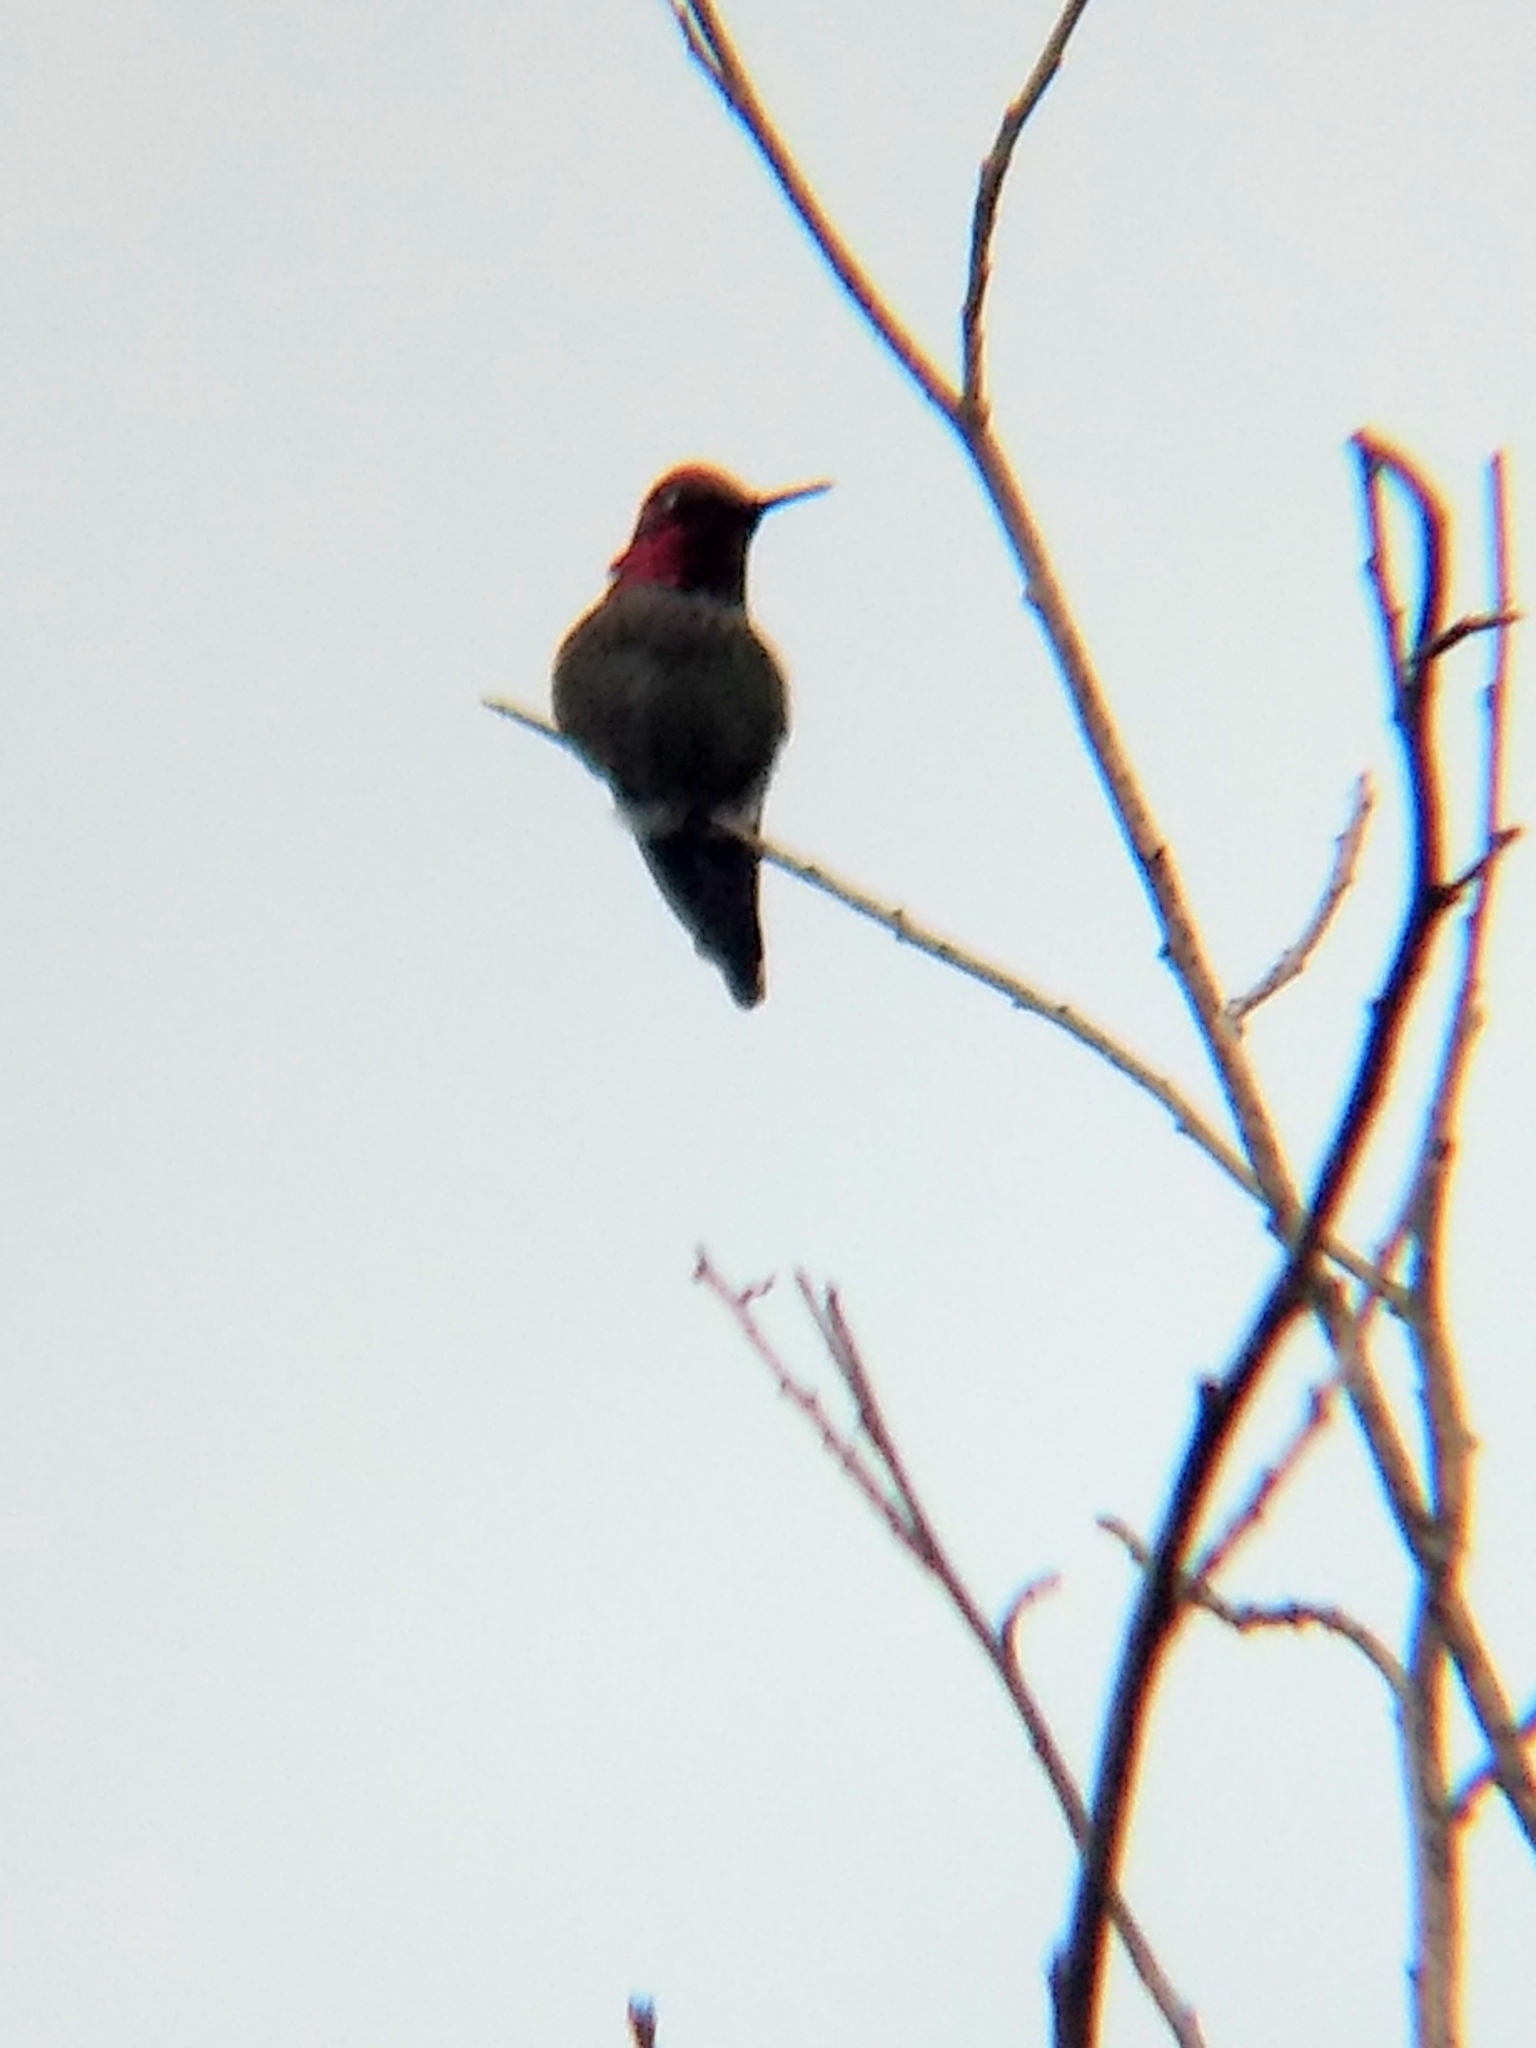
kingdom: Animalia
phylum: Chordata
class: Aves
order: Apodiformes
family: Trochilidae
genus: Calypte
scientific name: Calypte anna
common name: Anna's hummingbird
